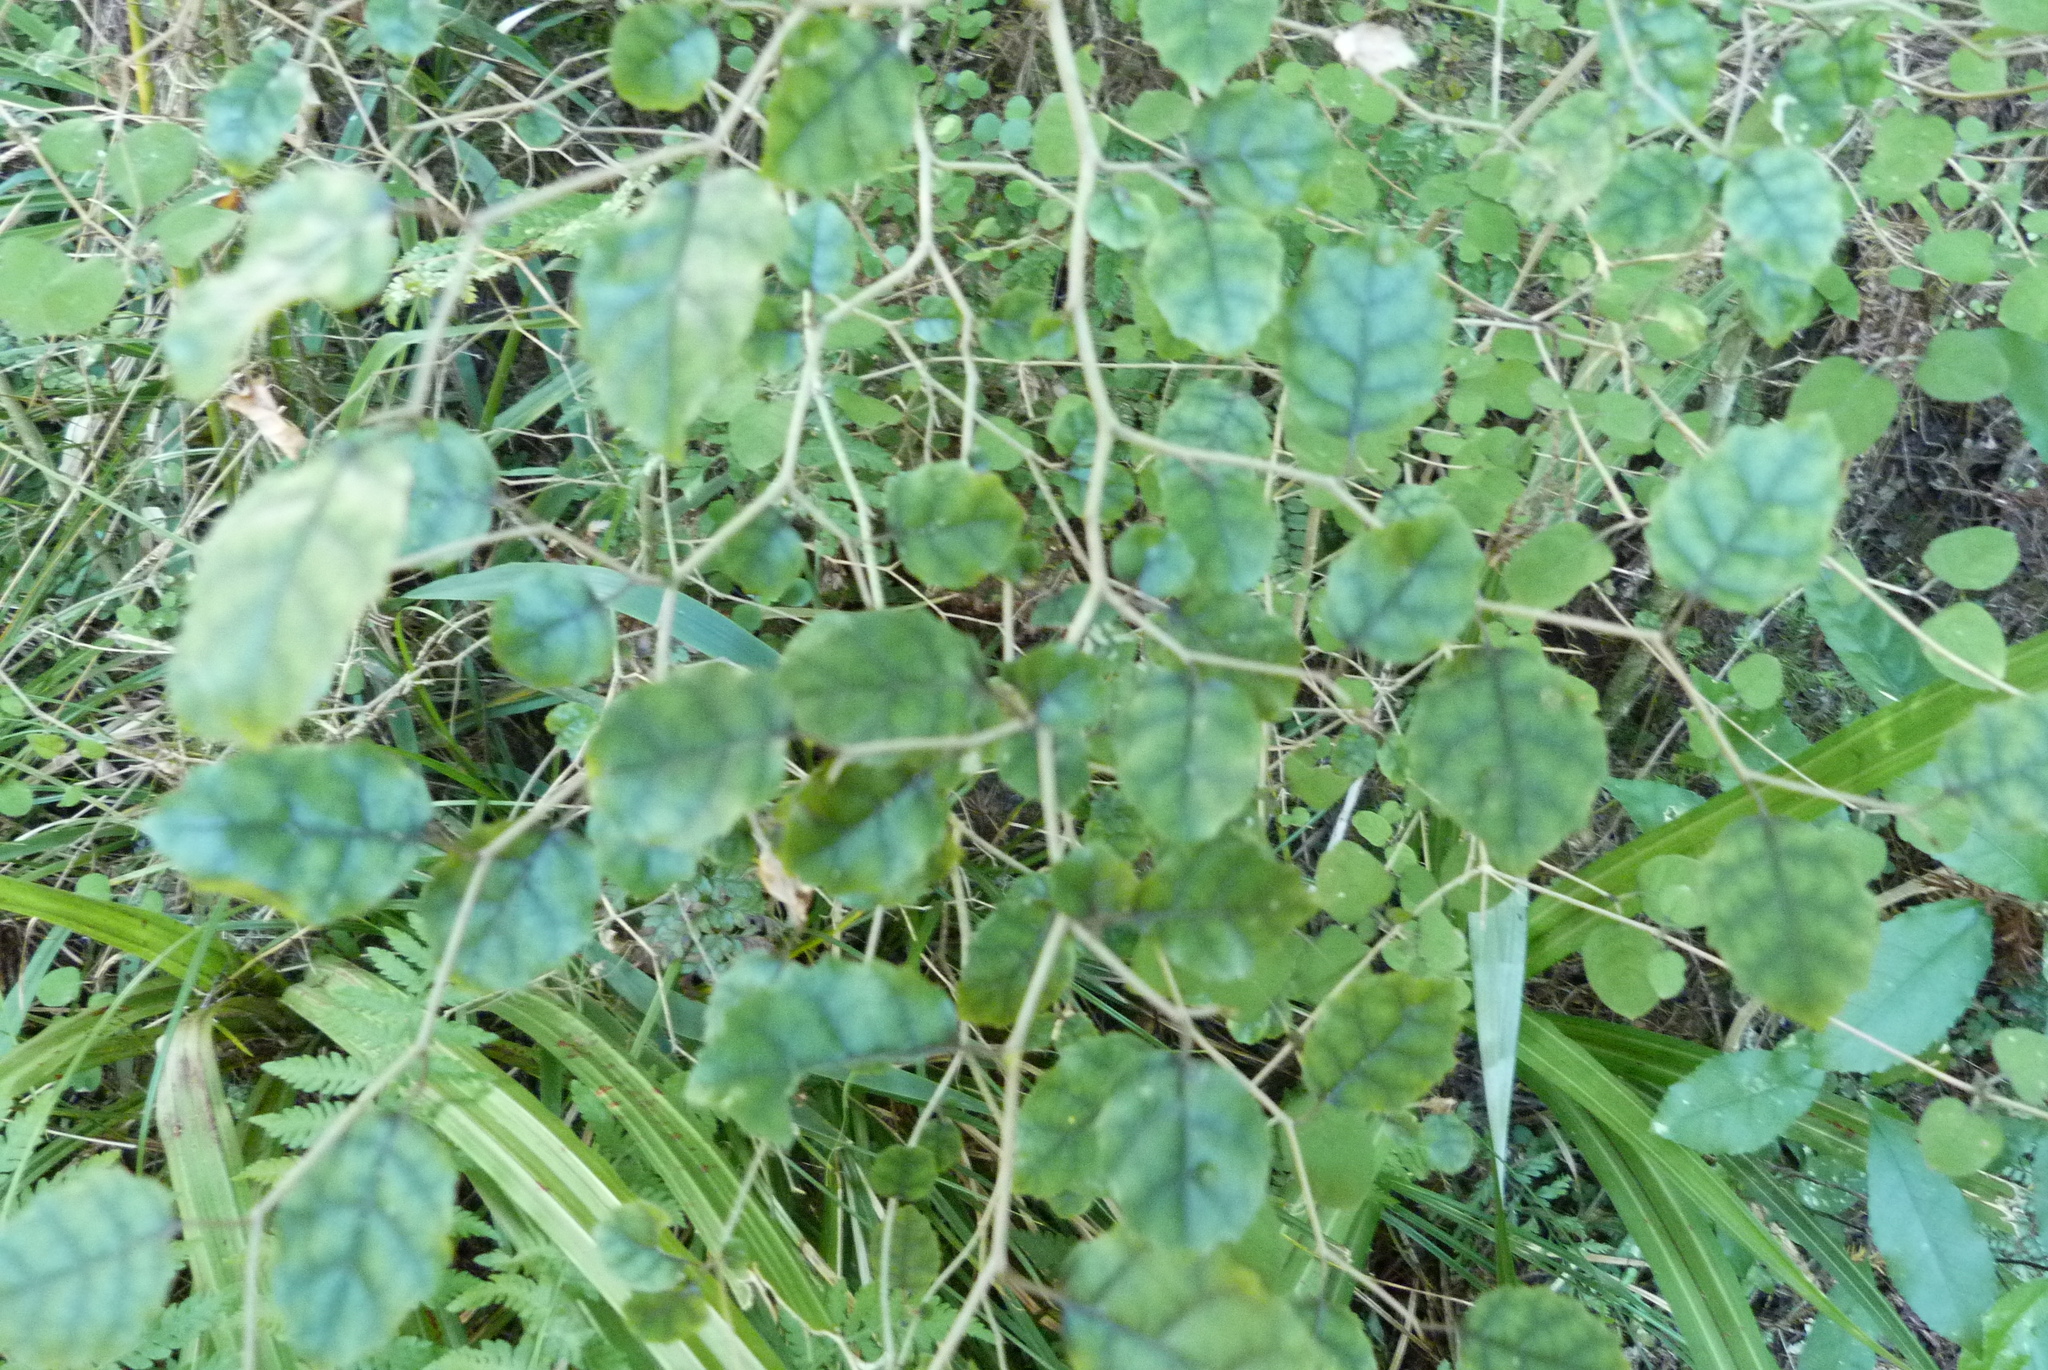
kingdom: Plantae
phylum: Tracheophyta
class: Magnoliopsida
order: Asterales
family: Rousseaceae
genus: Carpodetus
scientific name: Carpodetus serratus
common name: White mapau
